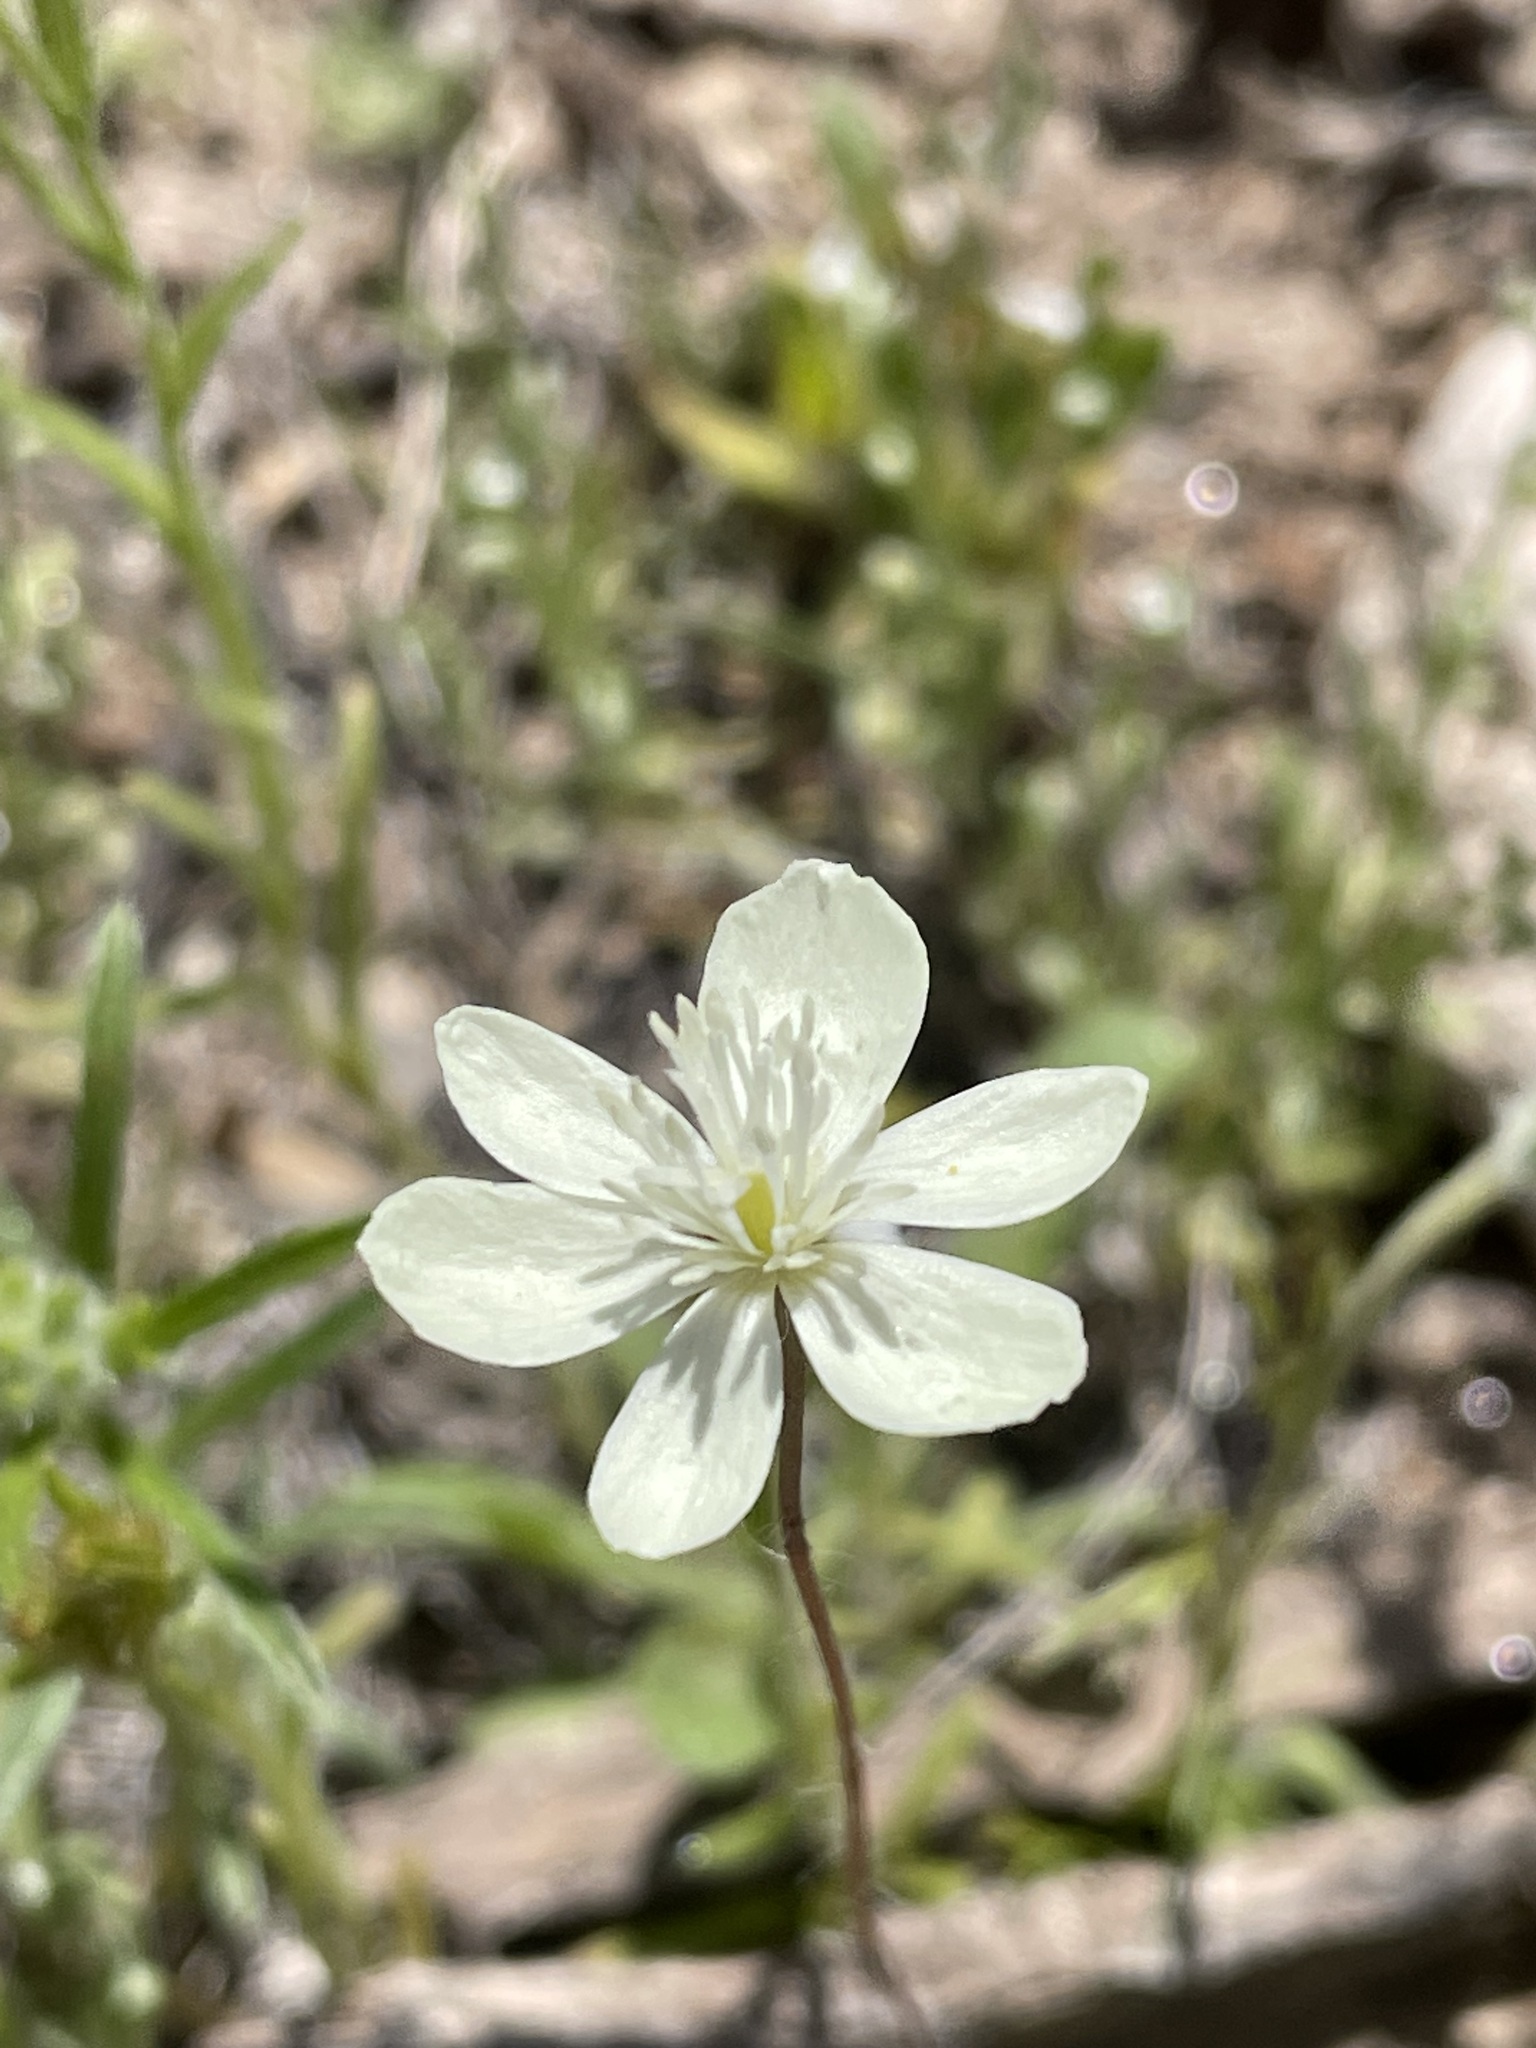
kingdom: Plantae
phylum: Tracheophyta
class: Magnoliopsida
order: Ranunculales
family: Papaveraceae
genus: Platystemon
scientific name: Platystemon californicus
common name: Cream-cups
